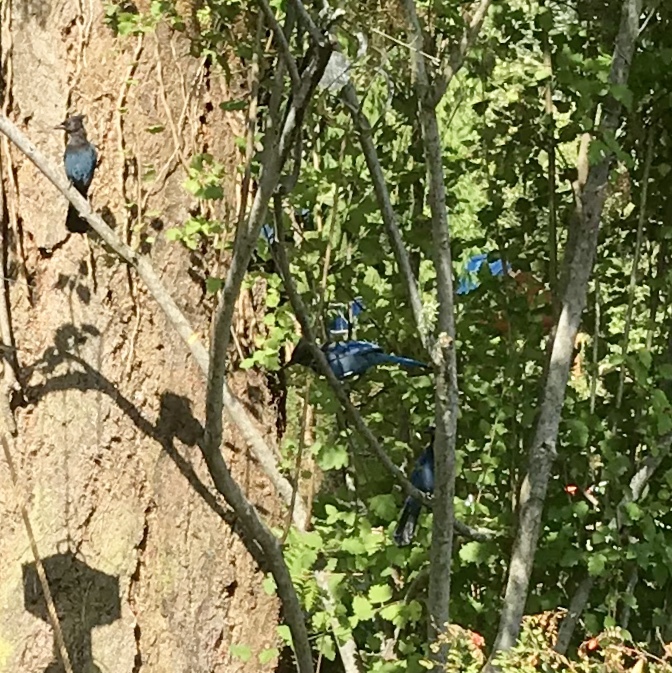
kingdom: Animalia
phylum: Chordata
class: Aves
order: Passeriformes
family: Corvidae
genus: Cyanocitta
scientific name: Cyanocitta stelleri
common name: Steller's jay
